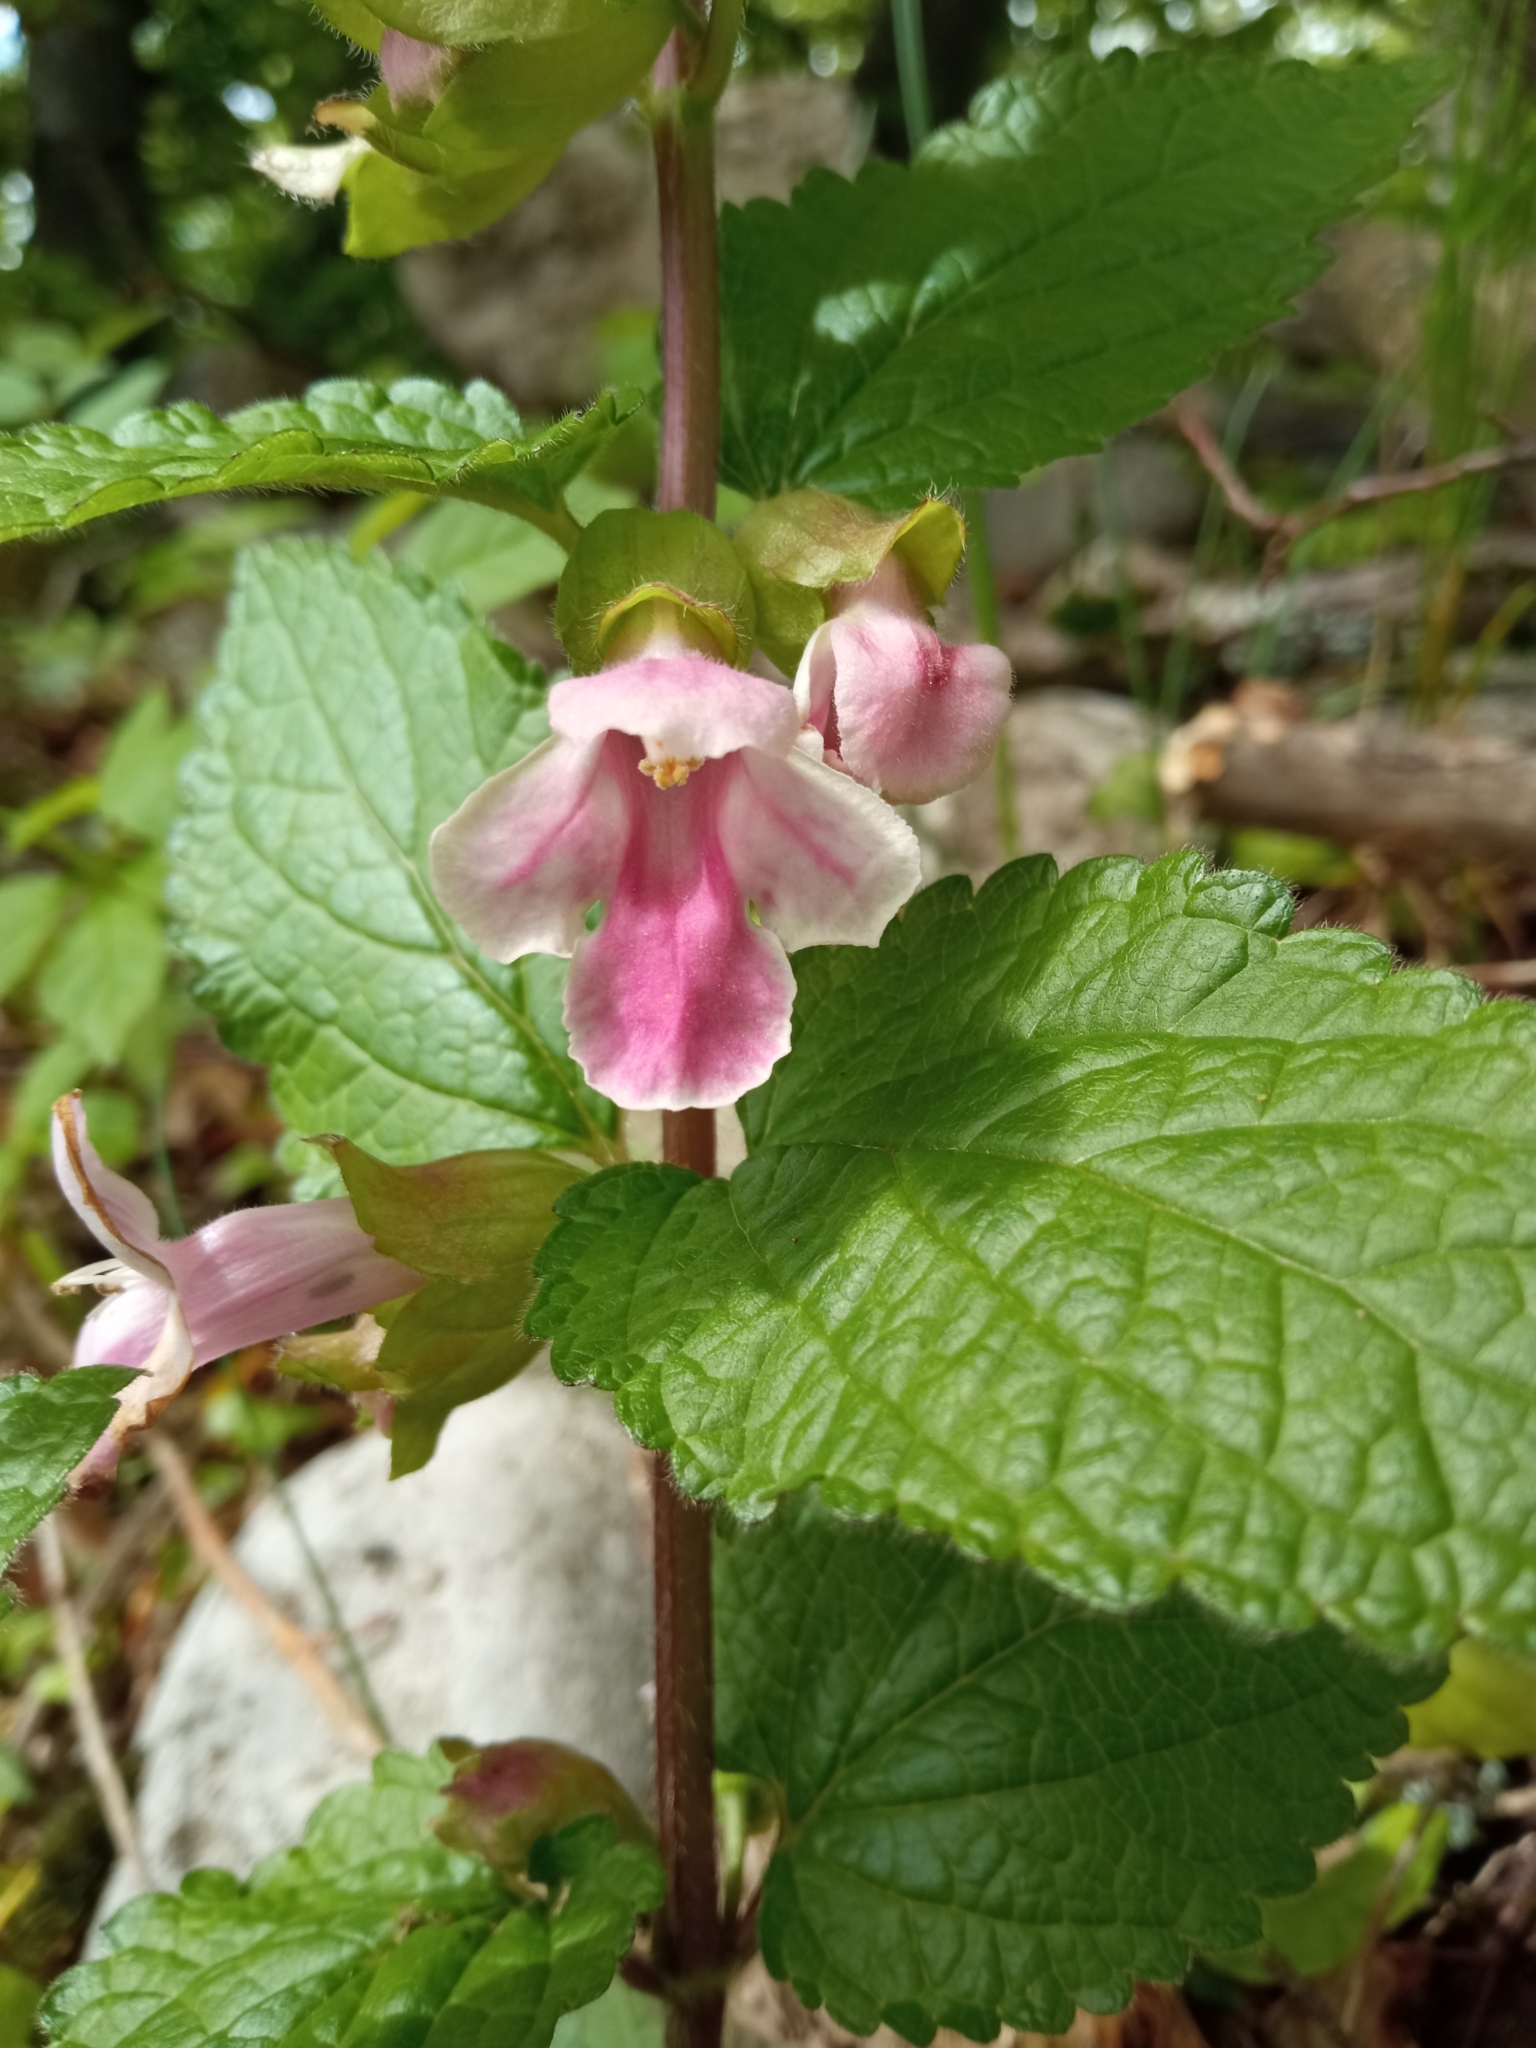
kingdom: Plantae
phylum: Tracheophyta
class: Magnoliopsida
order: Lamiales
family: Lamiaceae
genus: Melittis
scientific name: Melittis melissophyllum
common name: Bastard balm
